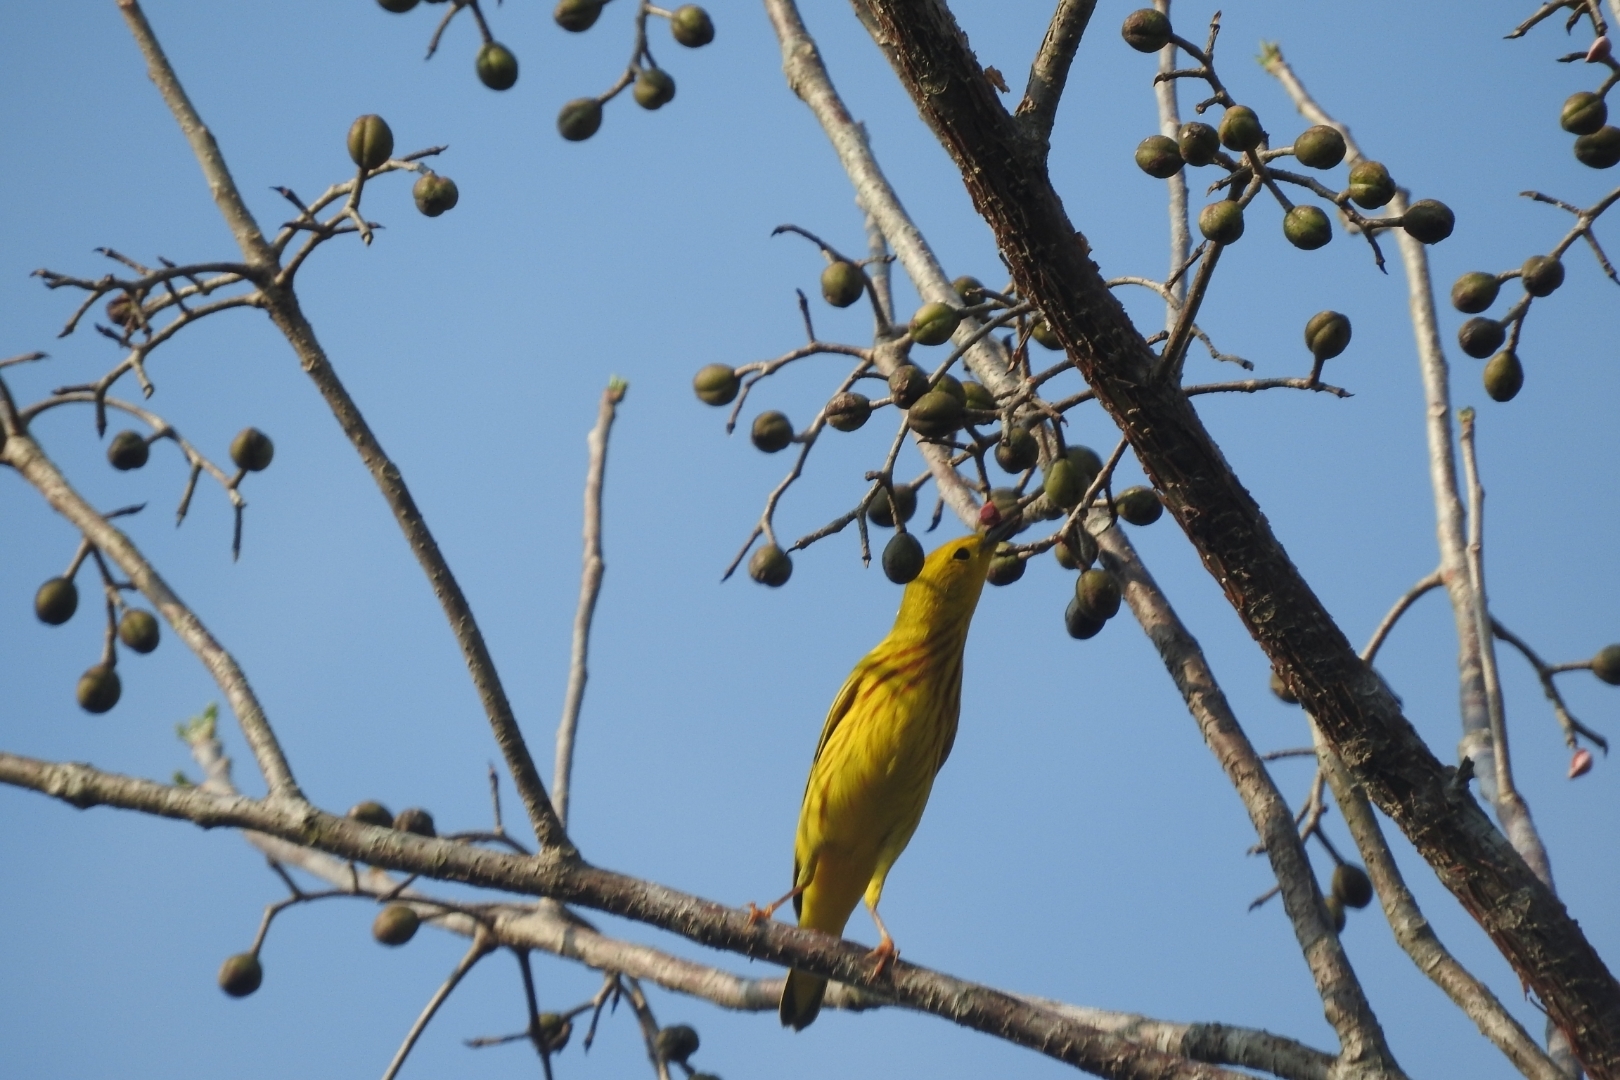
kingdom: Animalia
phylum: Chordata
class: Aves
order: Passeriformes
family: Parulidae
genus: Setophaga
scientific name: Setophaga petechia
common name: Yellow warbler
